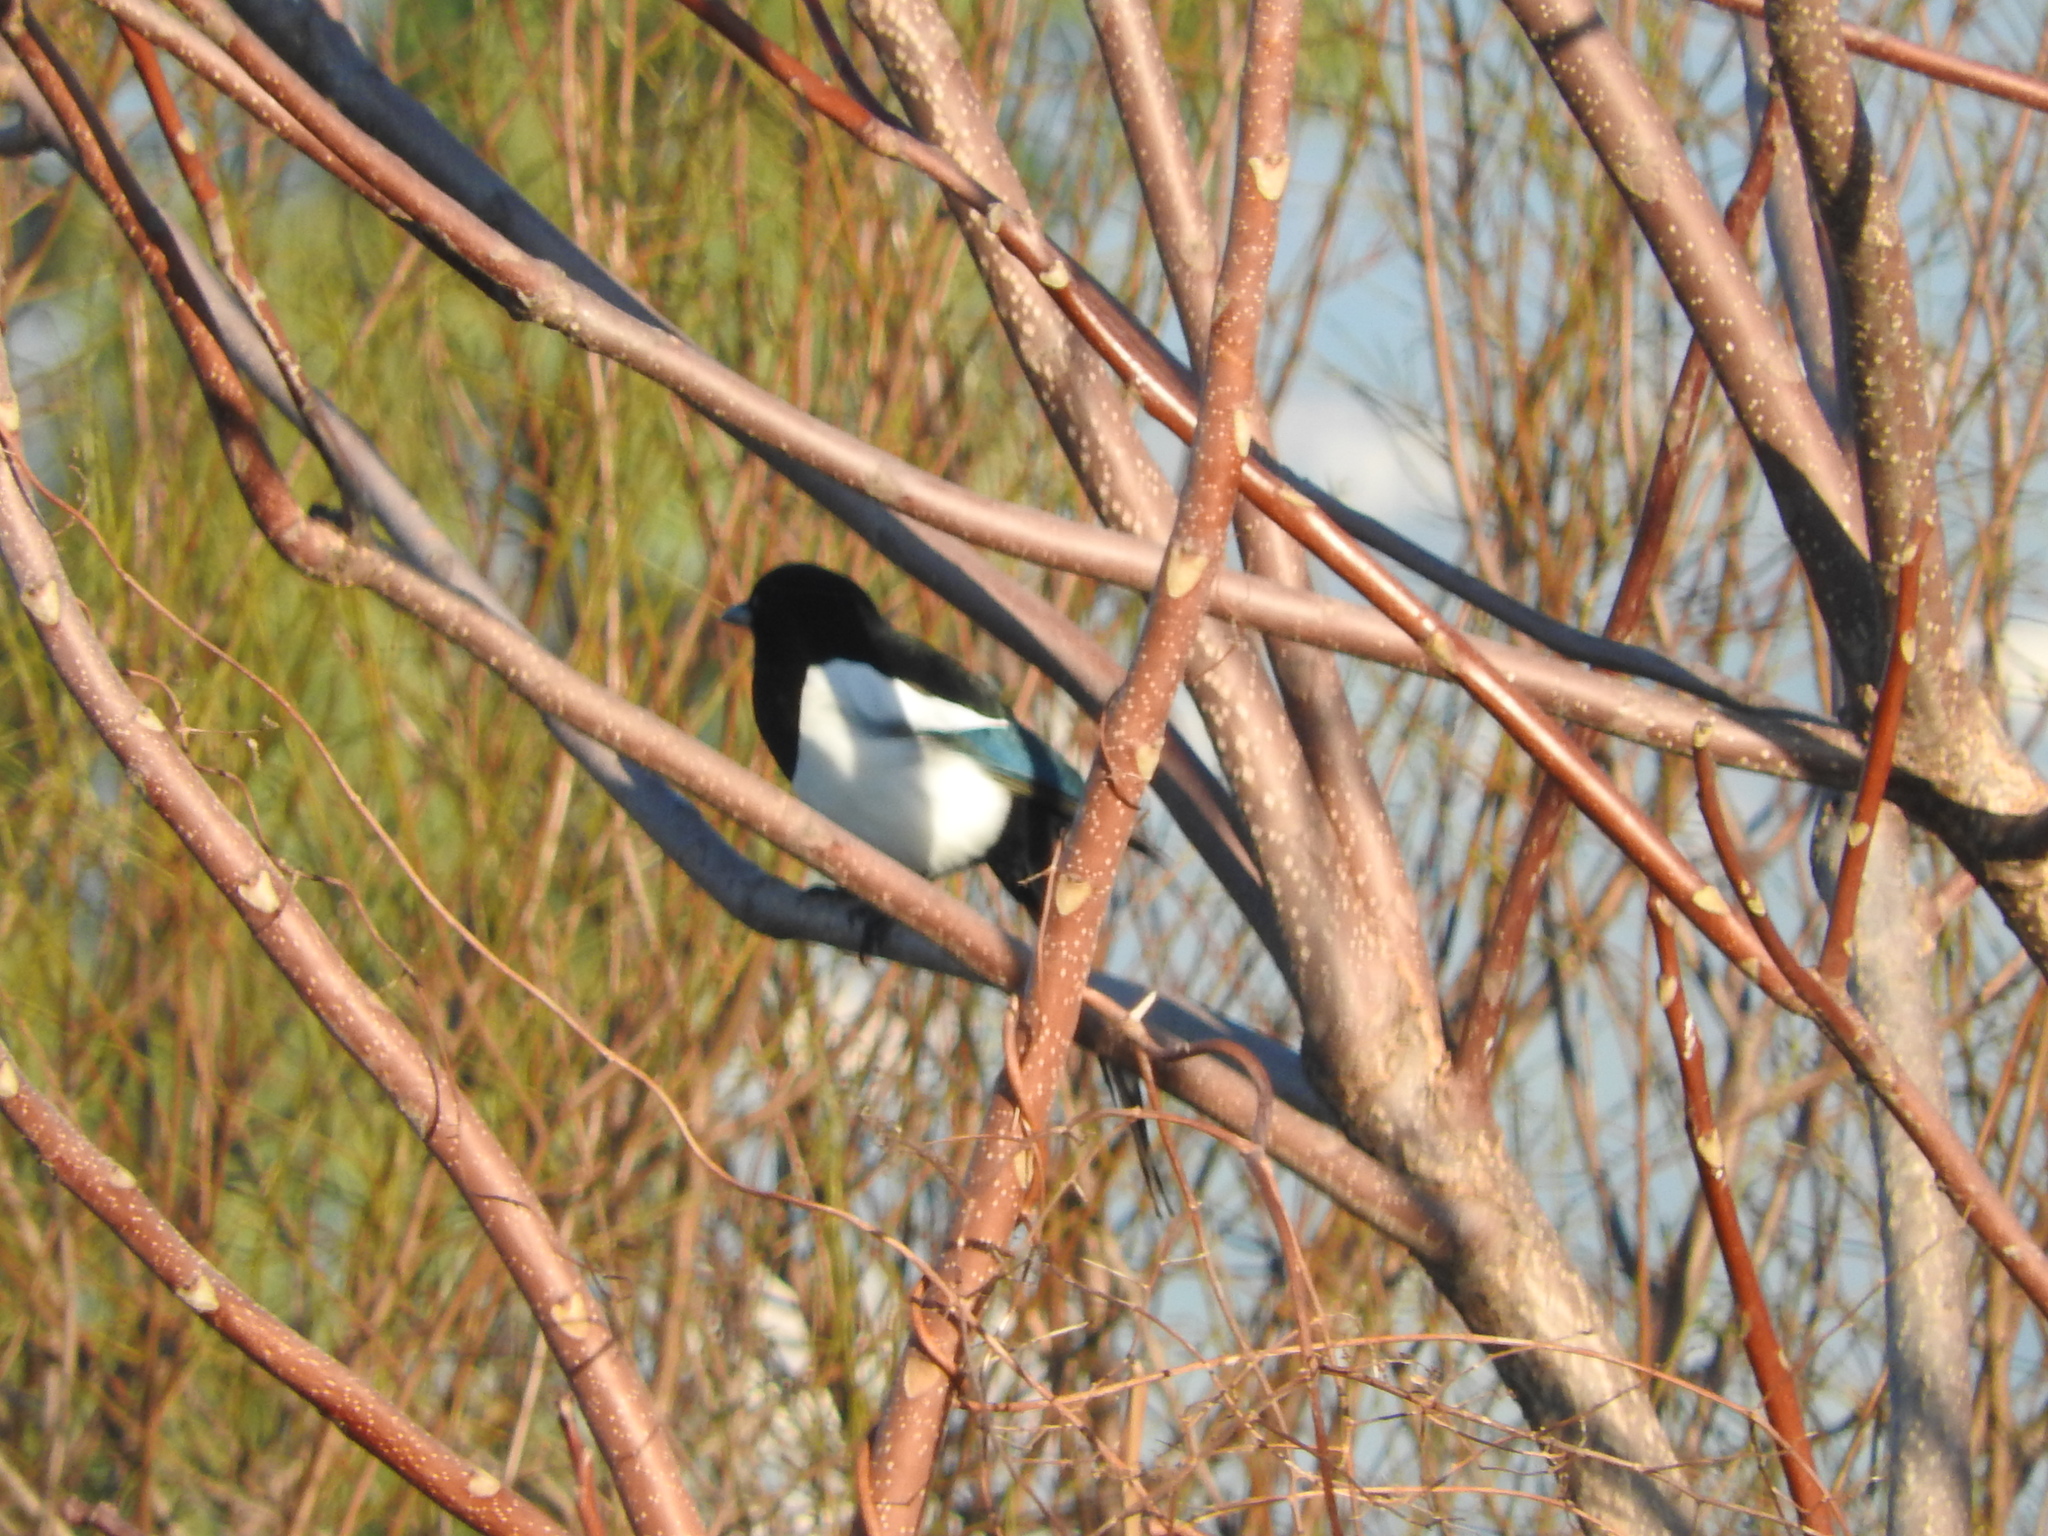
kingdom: Animalia
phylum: Chordata
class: Aves
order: Passeriformes
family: Corvidae
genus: Pica
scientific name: Pica pica
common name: Eurasian magpie
